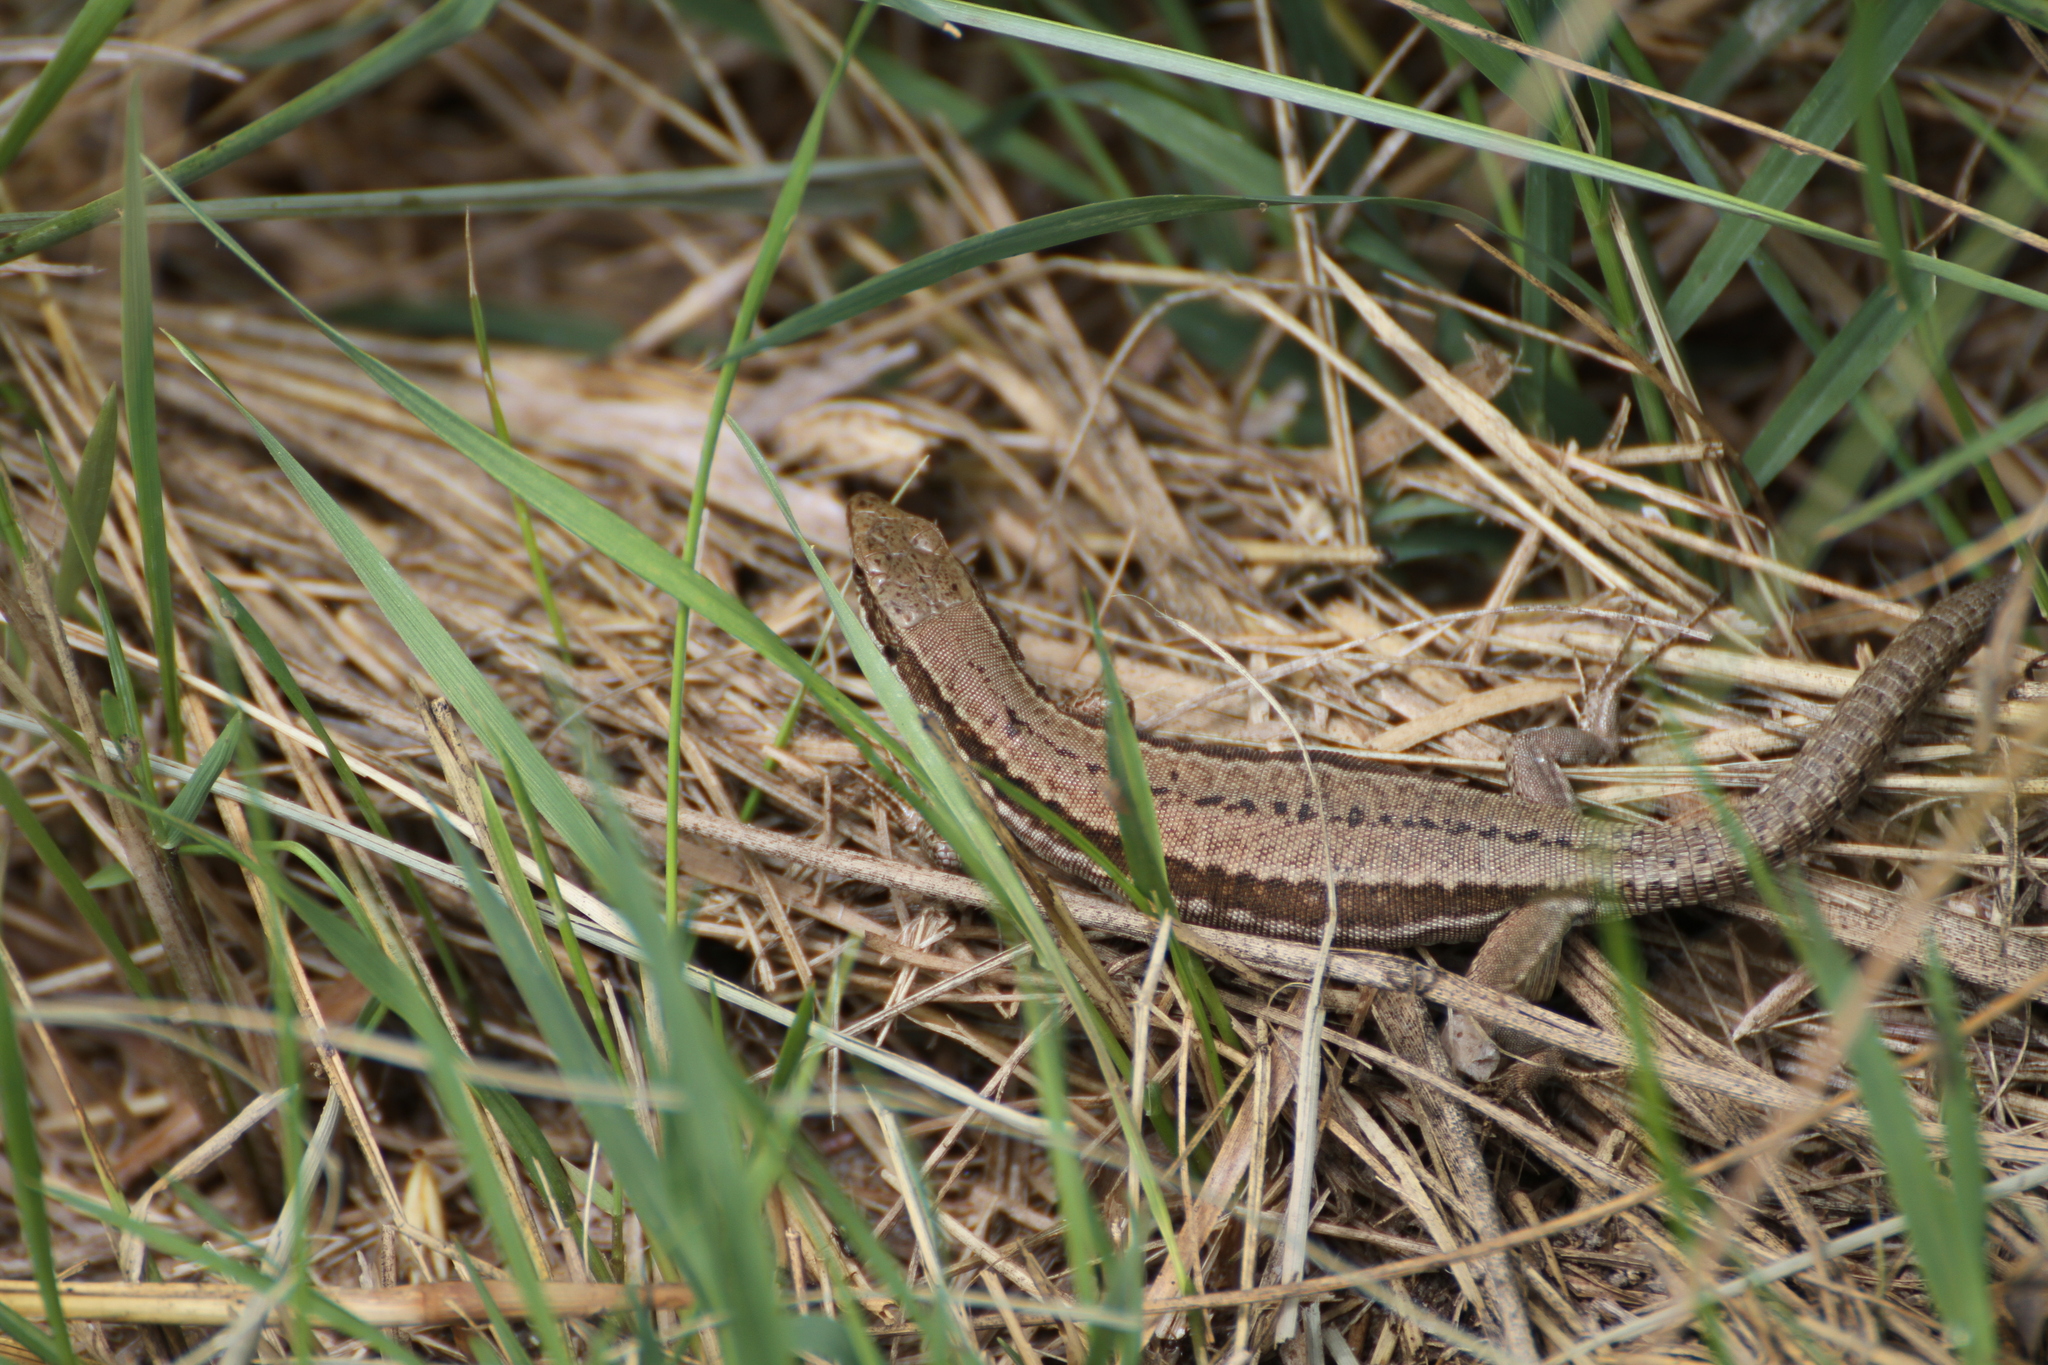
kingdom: Animalia
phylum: Chordata
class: Squamata
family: Lacertidae
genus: Podarcis
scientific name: Podarcis muralis
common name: Common wall lizard
